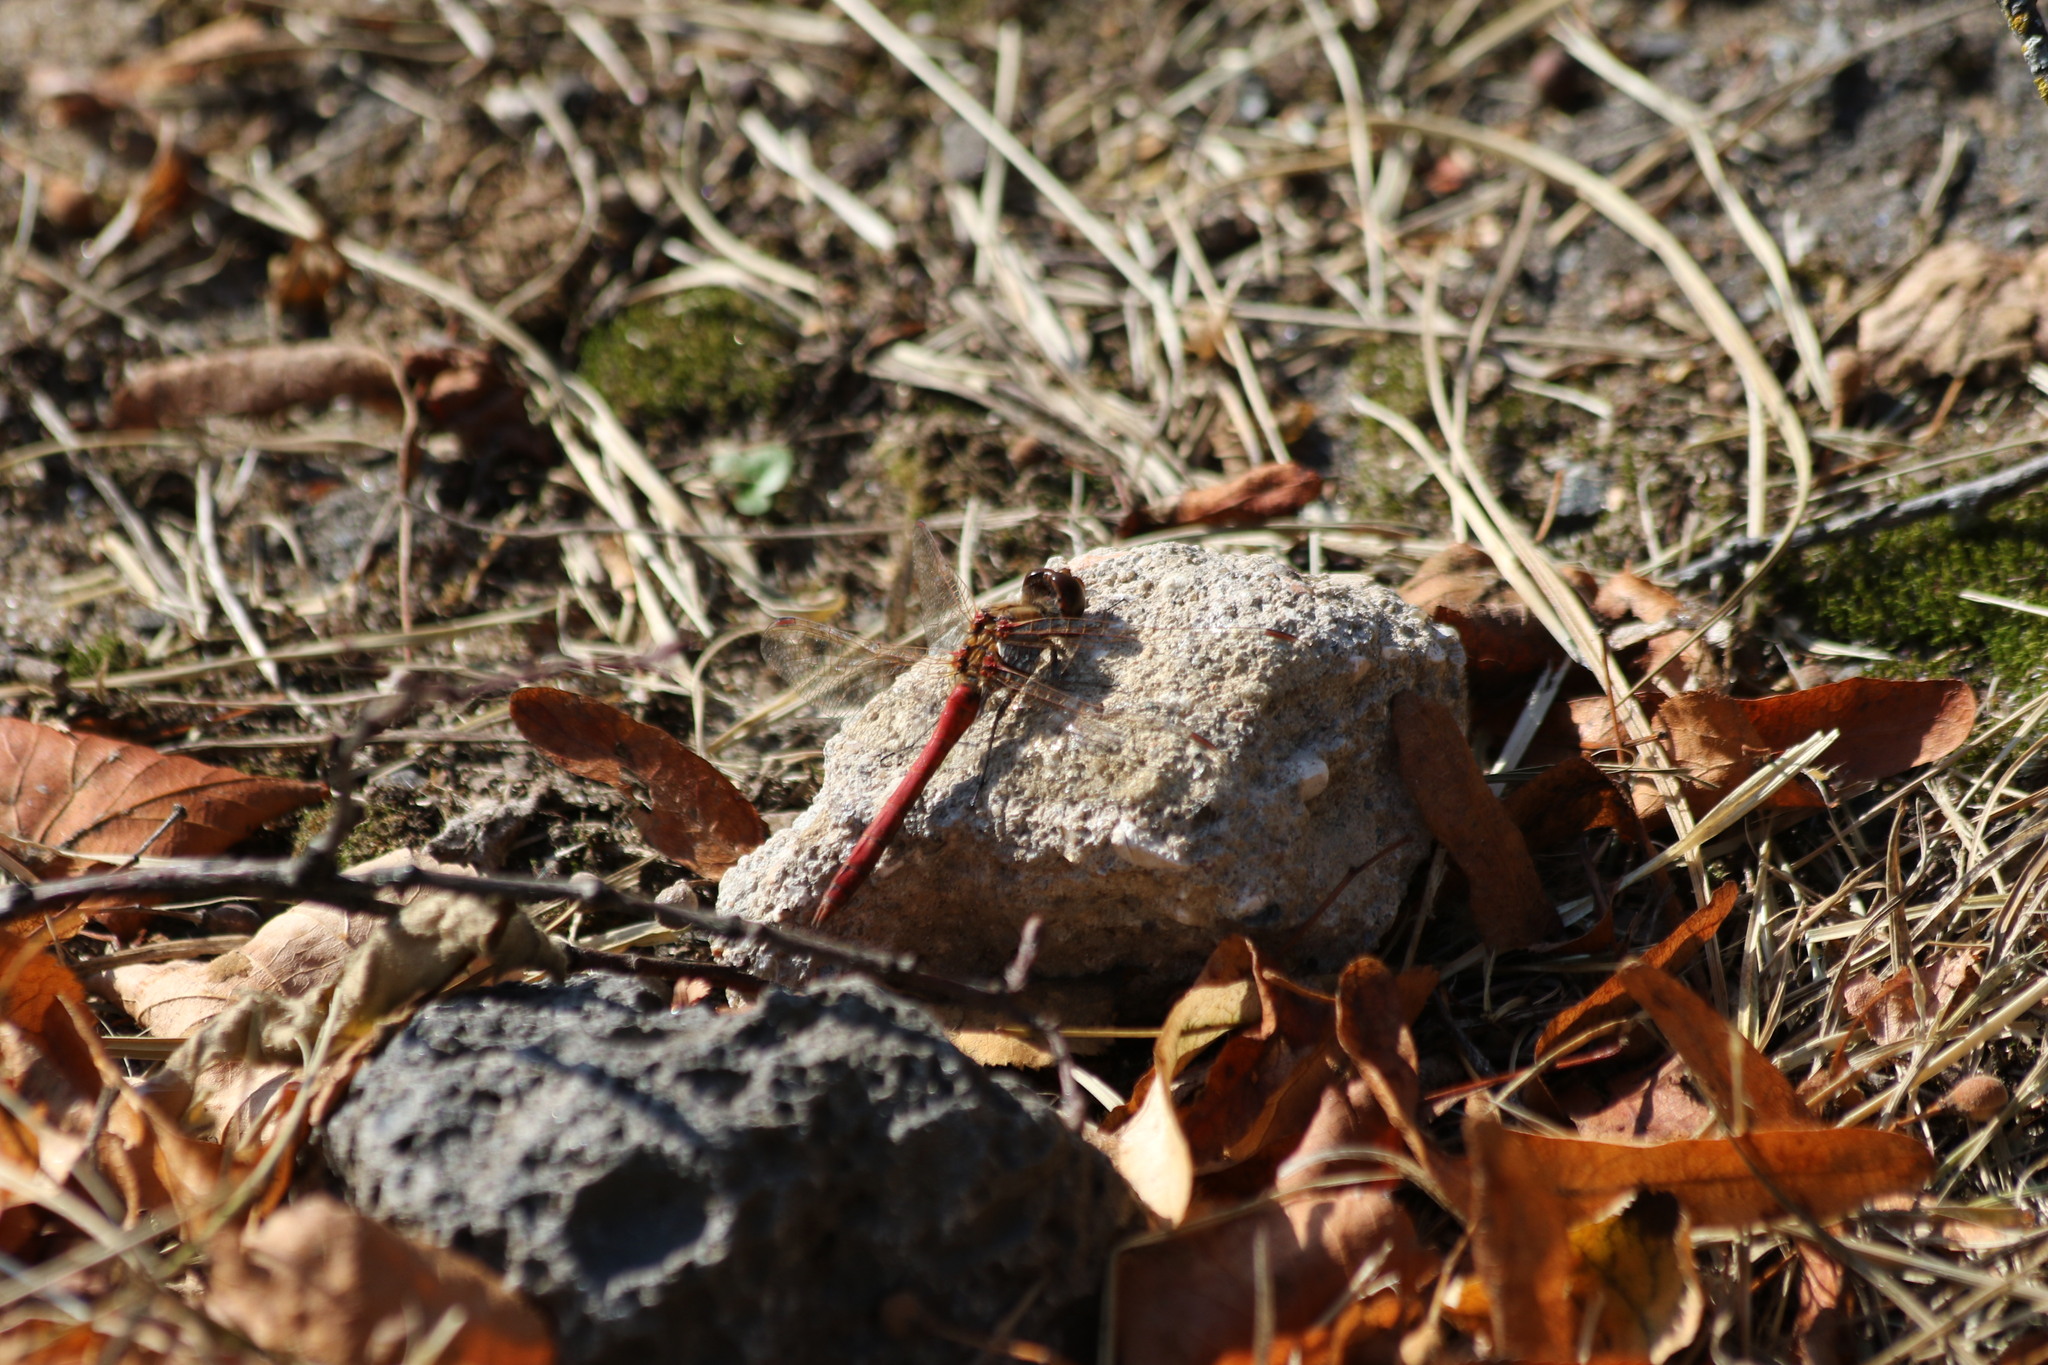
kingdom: Animalia
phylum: Arthropoda
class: Insecta
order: Odonata
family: Libellulidae
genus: Sympetrum
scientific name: Sympetrum vulgatum
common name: Vagrant darter
